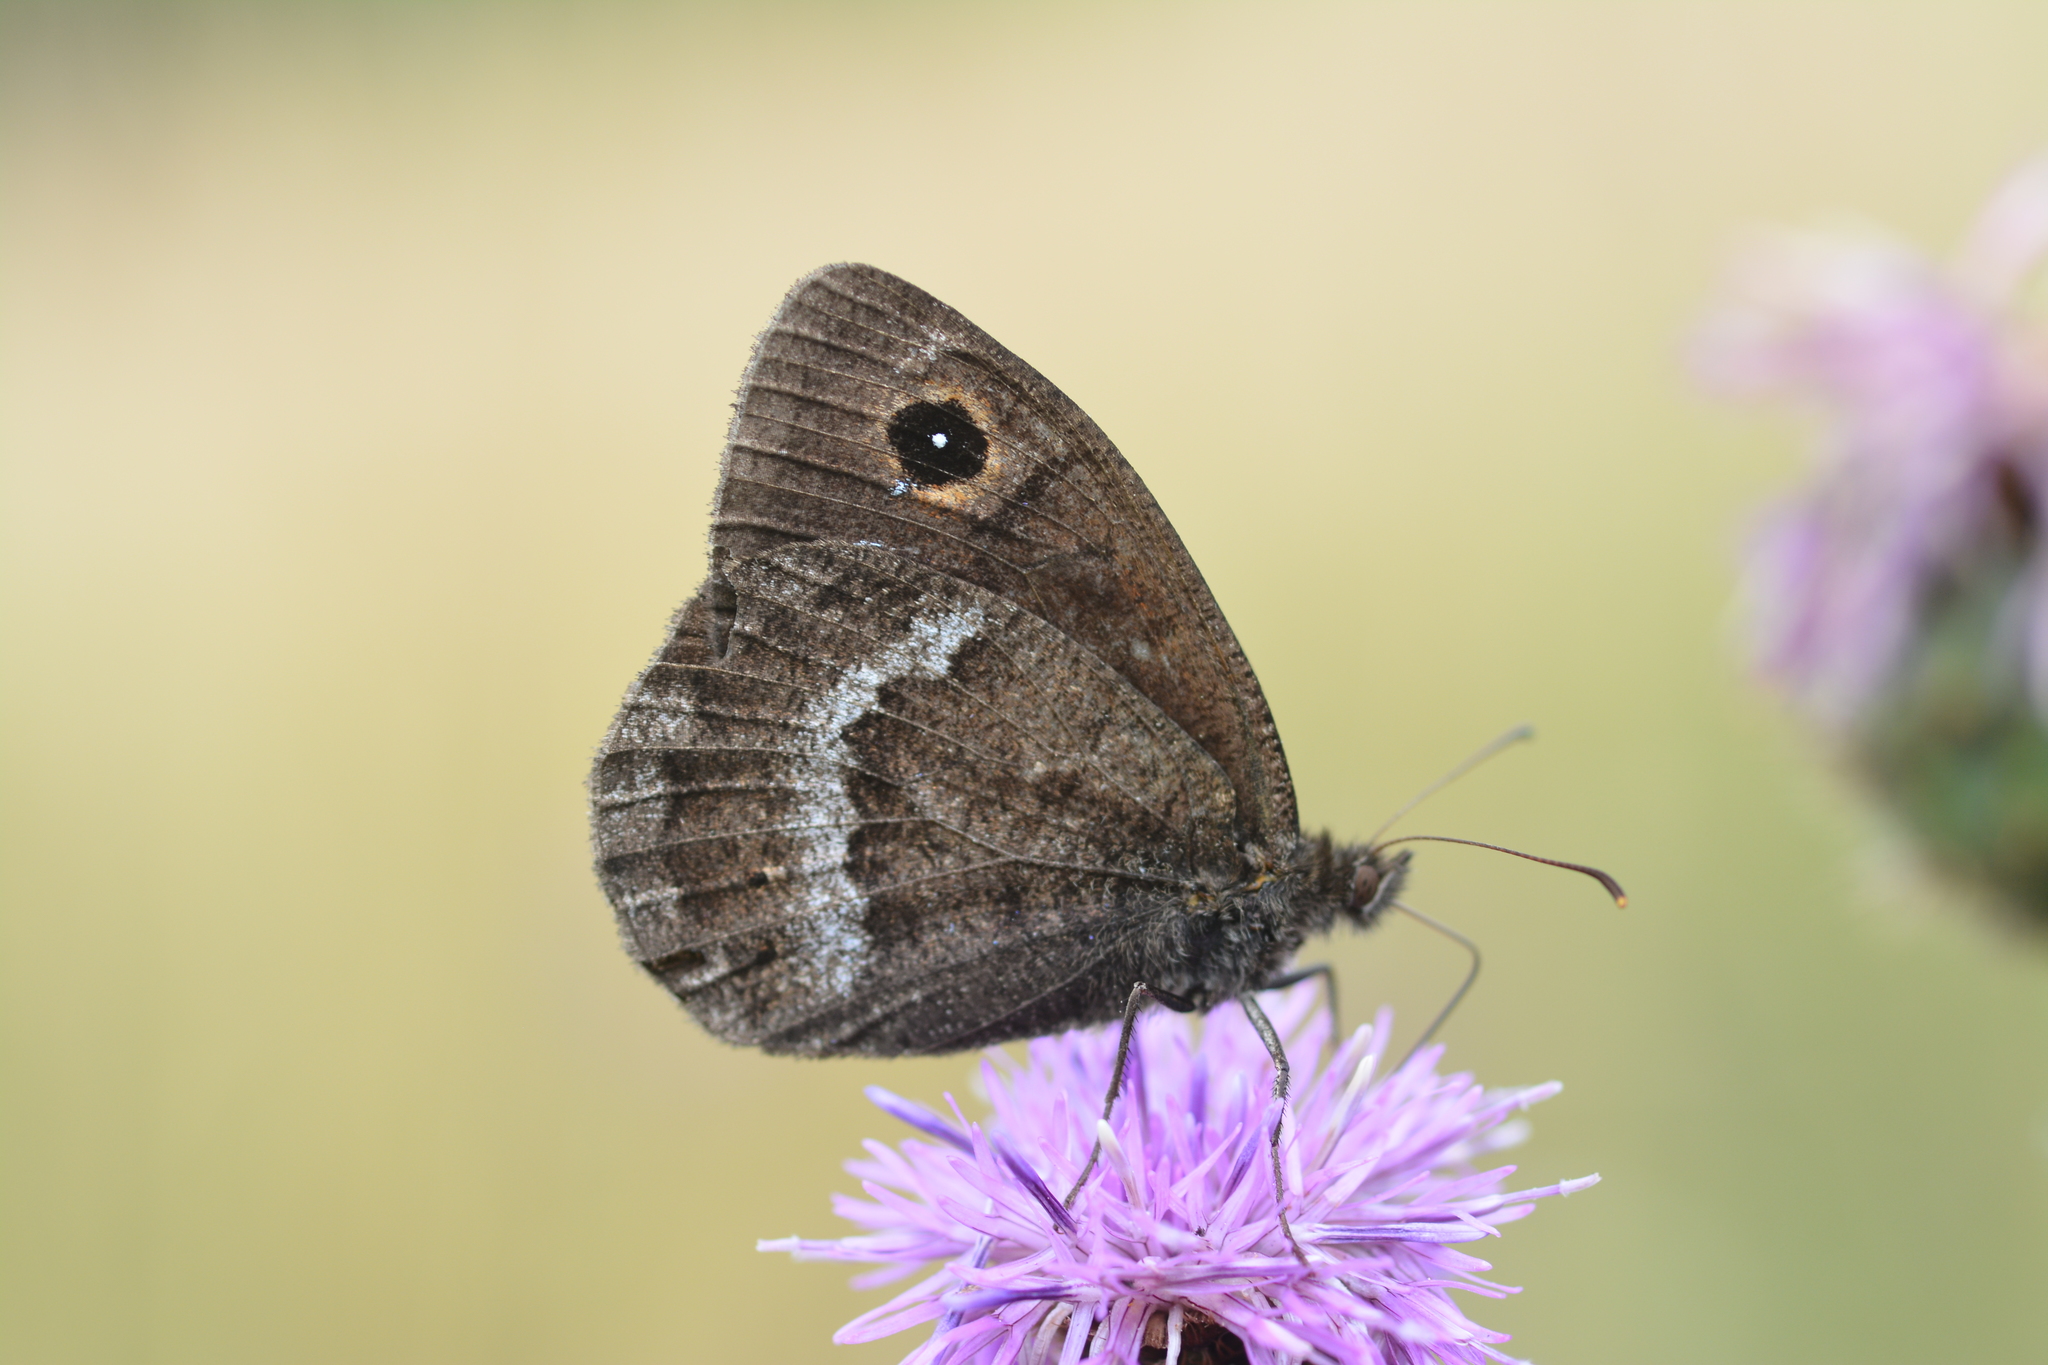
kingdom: Animalia
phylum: Arthropoda
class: Insecta
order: Lepidoptera
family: Nymphalidae
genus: Satyrus
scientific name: Satyrus ferula
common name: Great sooty satyr
